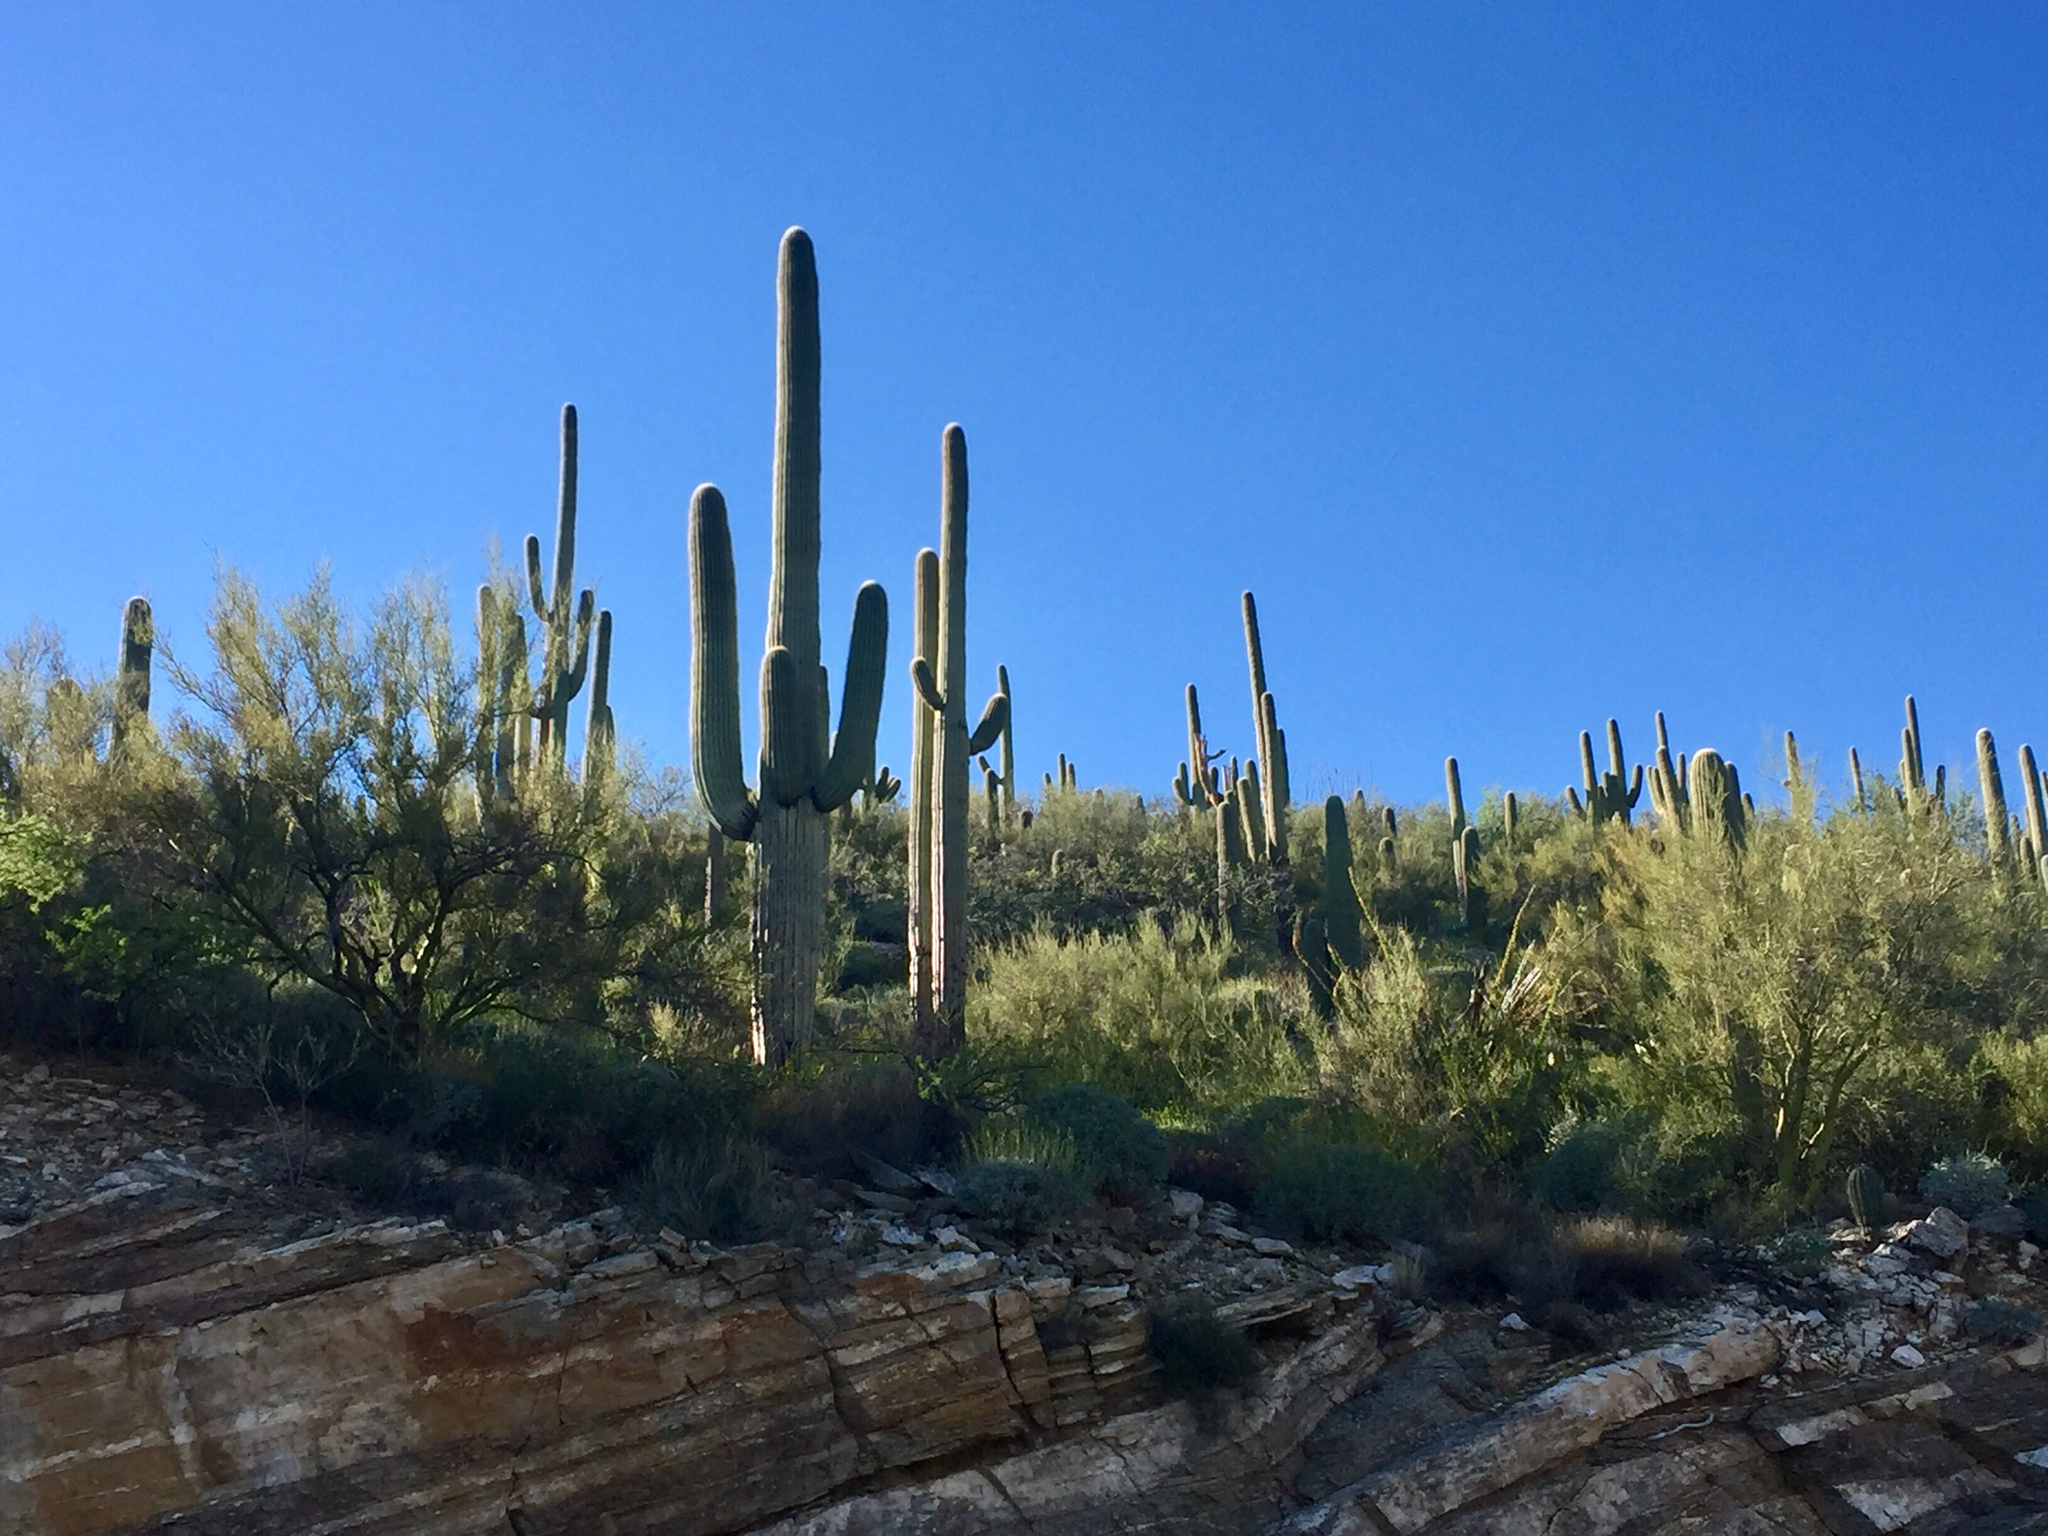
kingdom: Plantae
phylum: Tracheophyta
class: Magnoliopsida
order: Caryophyllales
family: Cactaceae
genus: Carnegiea
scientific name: Carnegiea gigantea
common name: Saguaro
